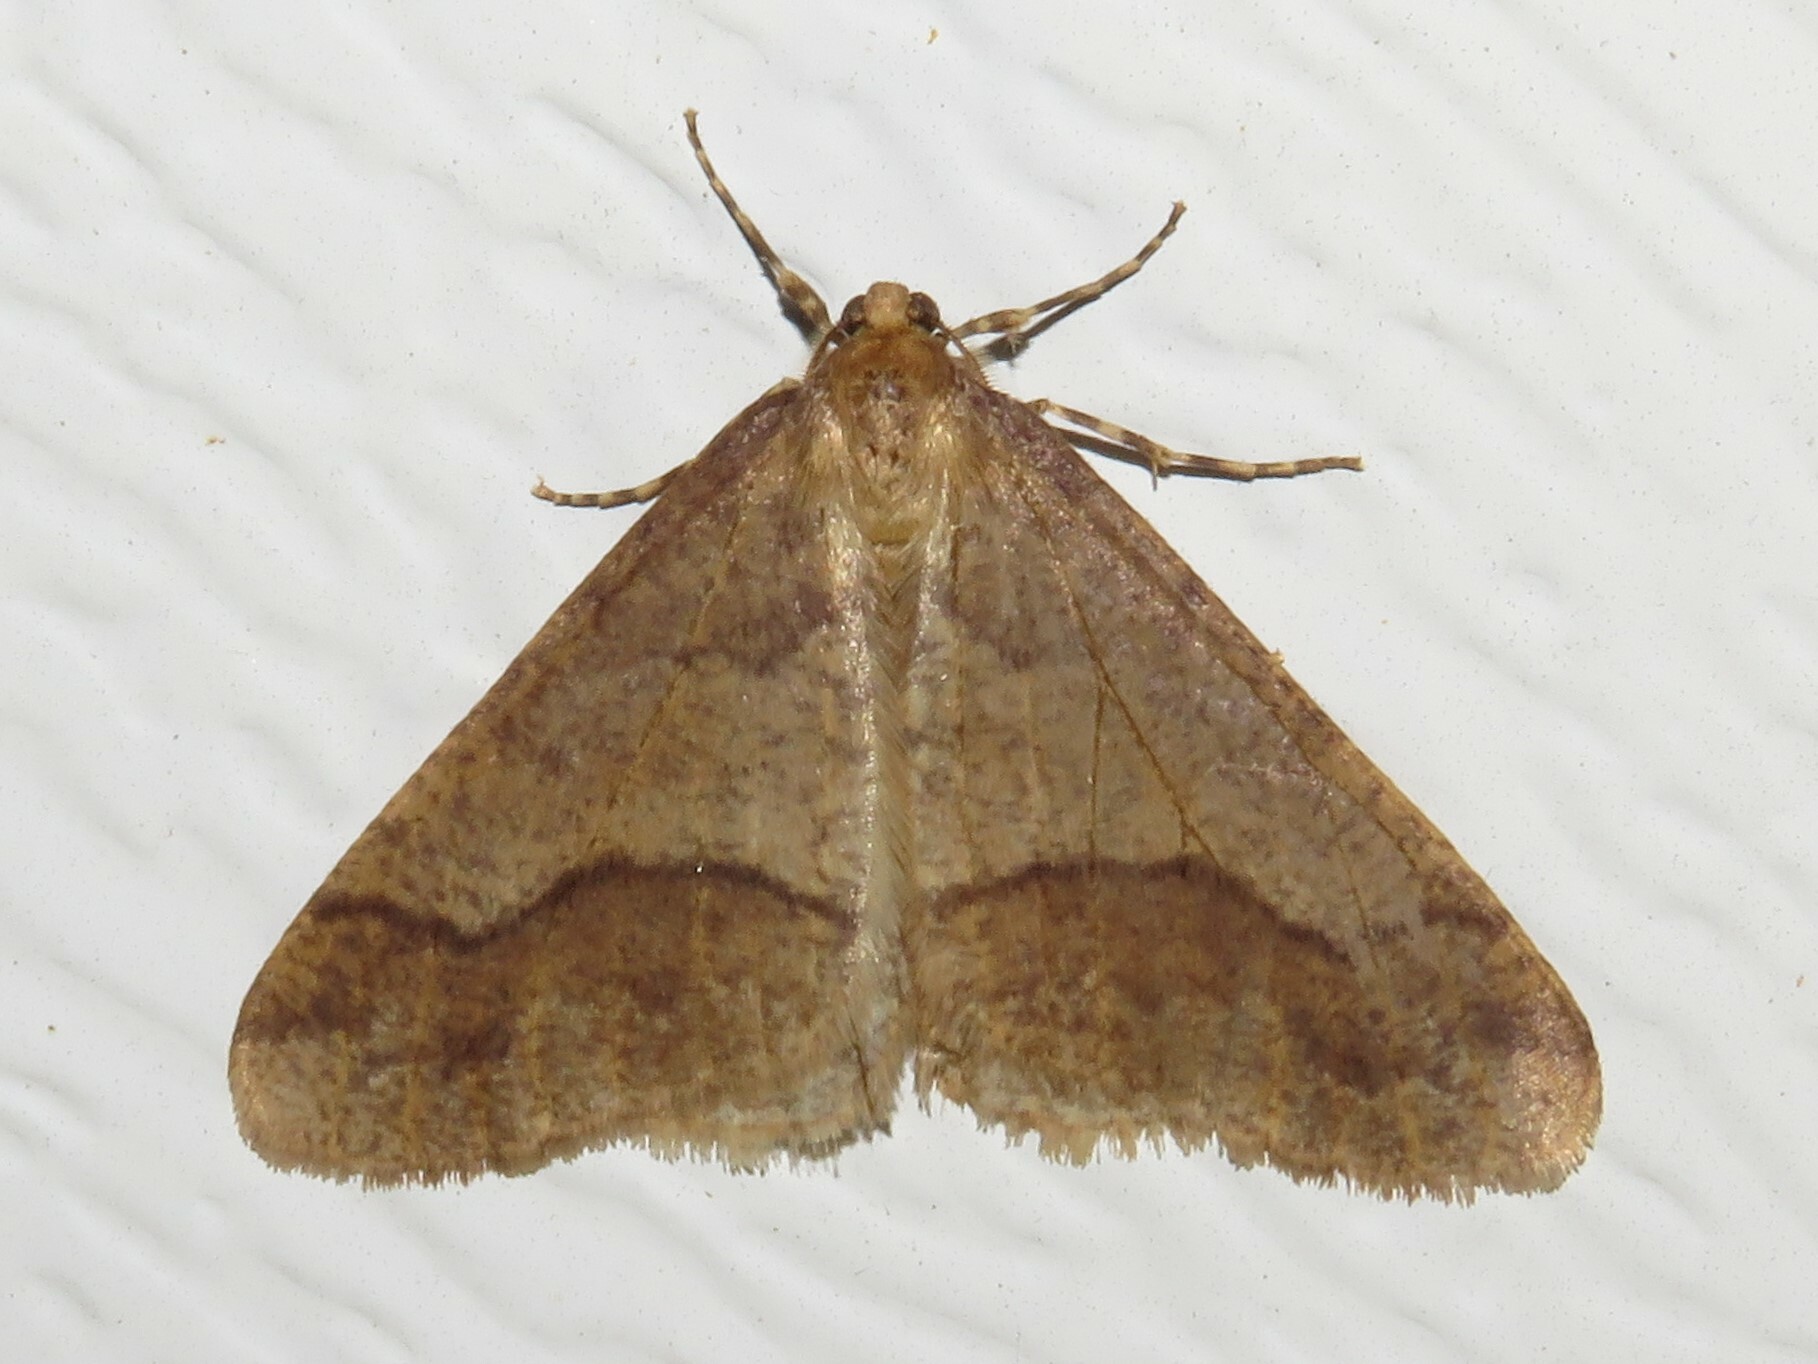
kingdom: Animalia
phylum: Arthropoda
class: Insecta
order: Lepidoptera
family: Geometridae
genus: Erannis
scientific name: Erannis tiliaria
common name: Linden looper
